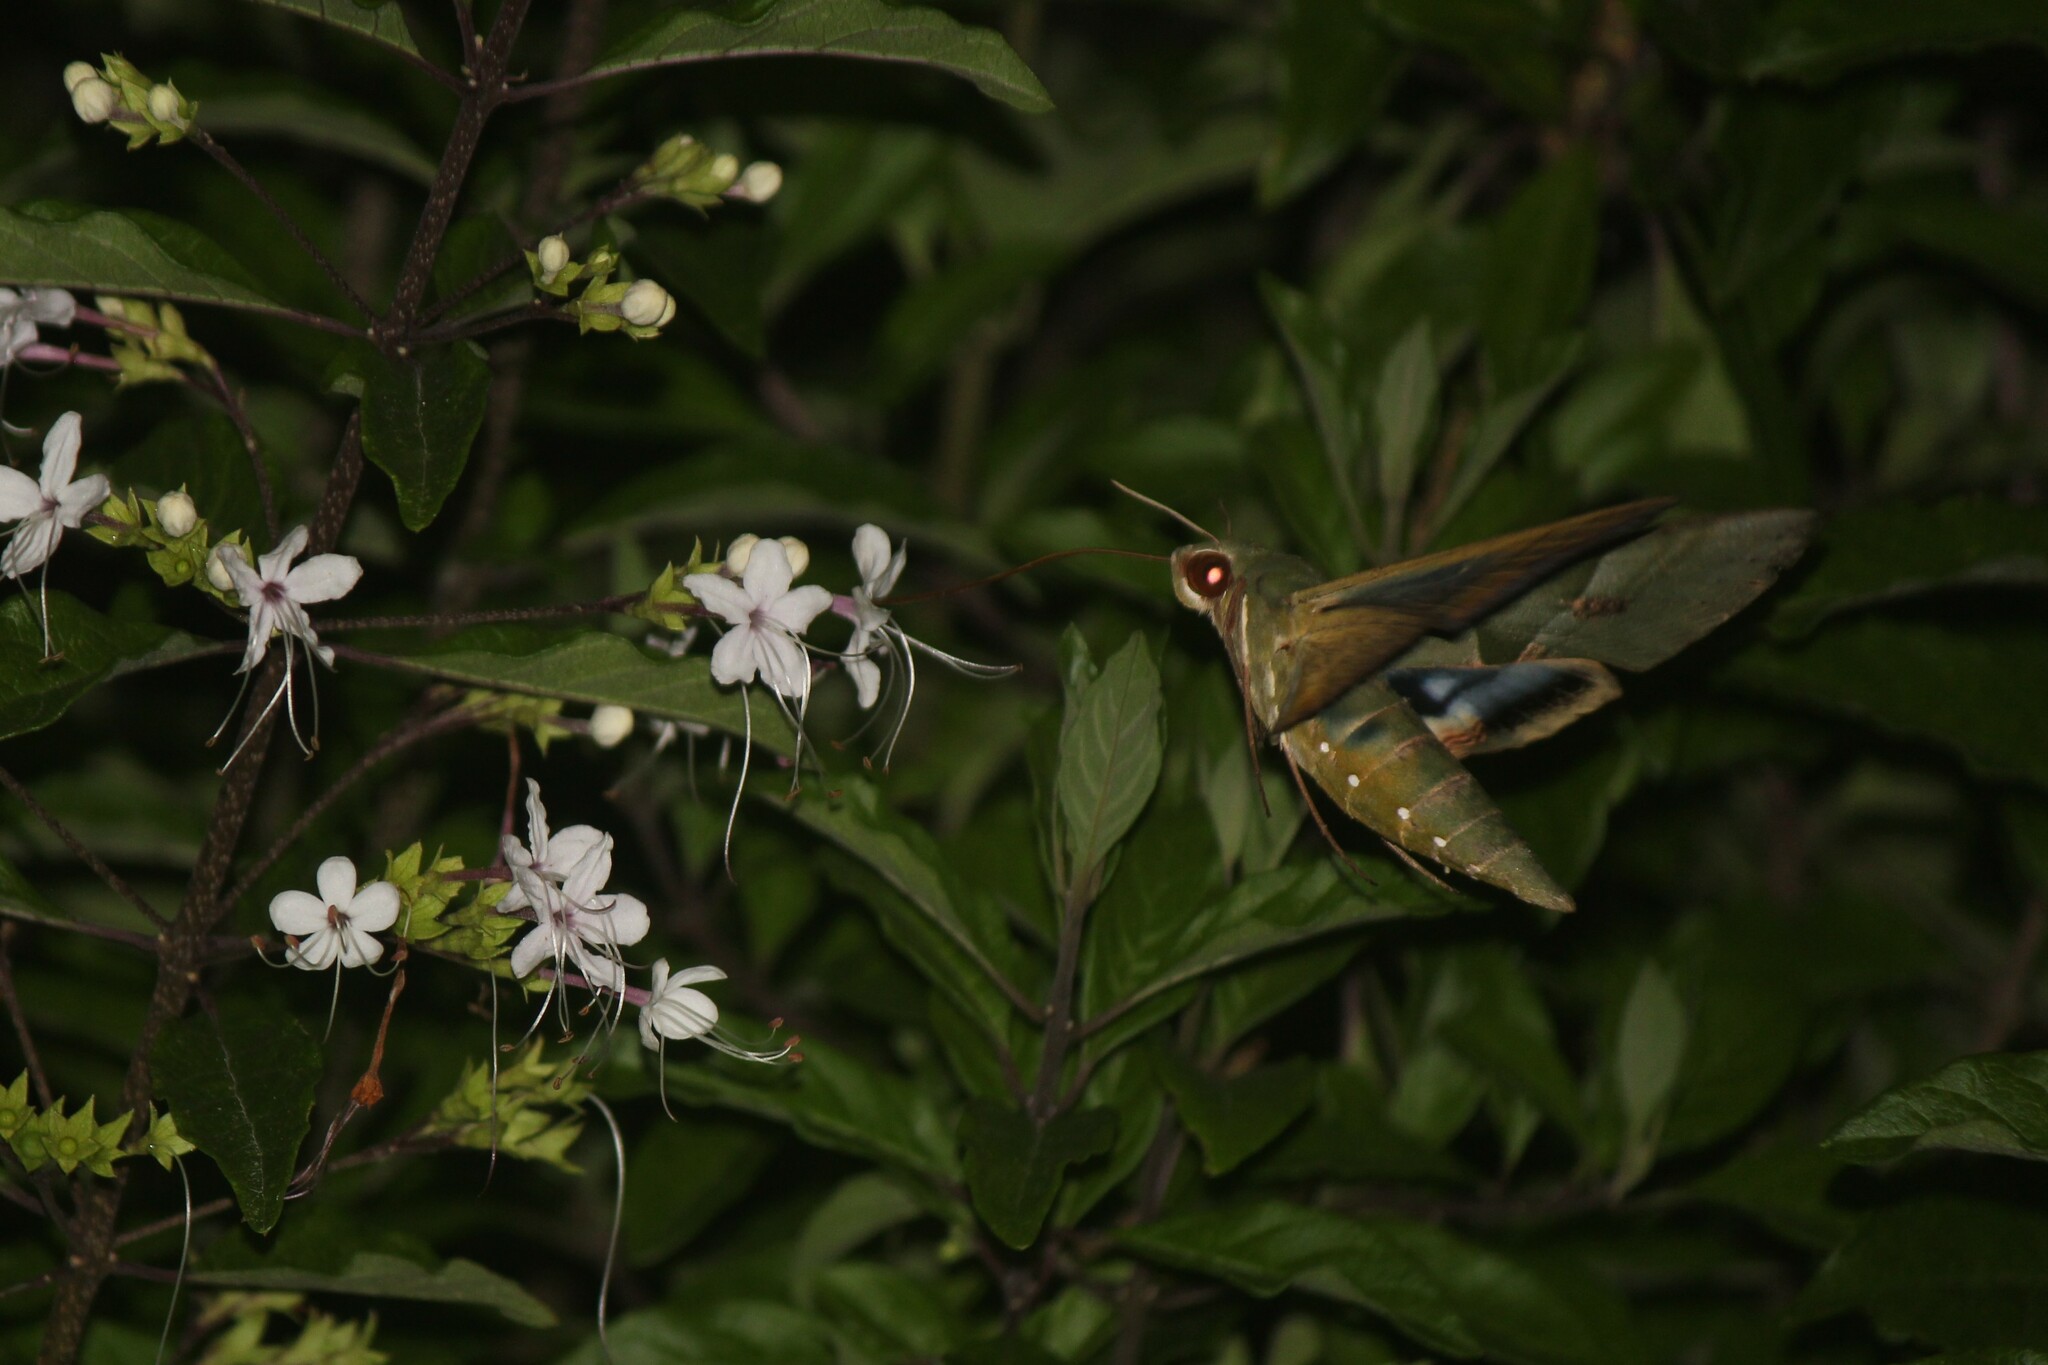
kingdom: Animalia
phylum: Arthropoda
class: Insecta
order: Lepidoptera
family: Sphingidae
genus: Eumorpha
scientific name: Eumorpha labruscae
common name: Gaudy sphinx
